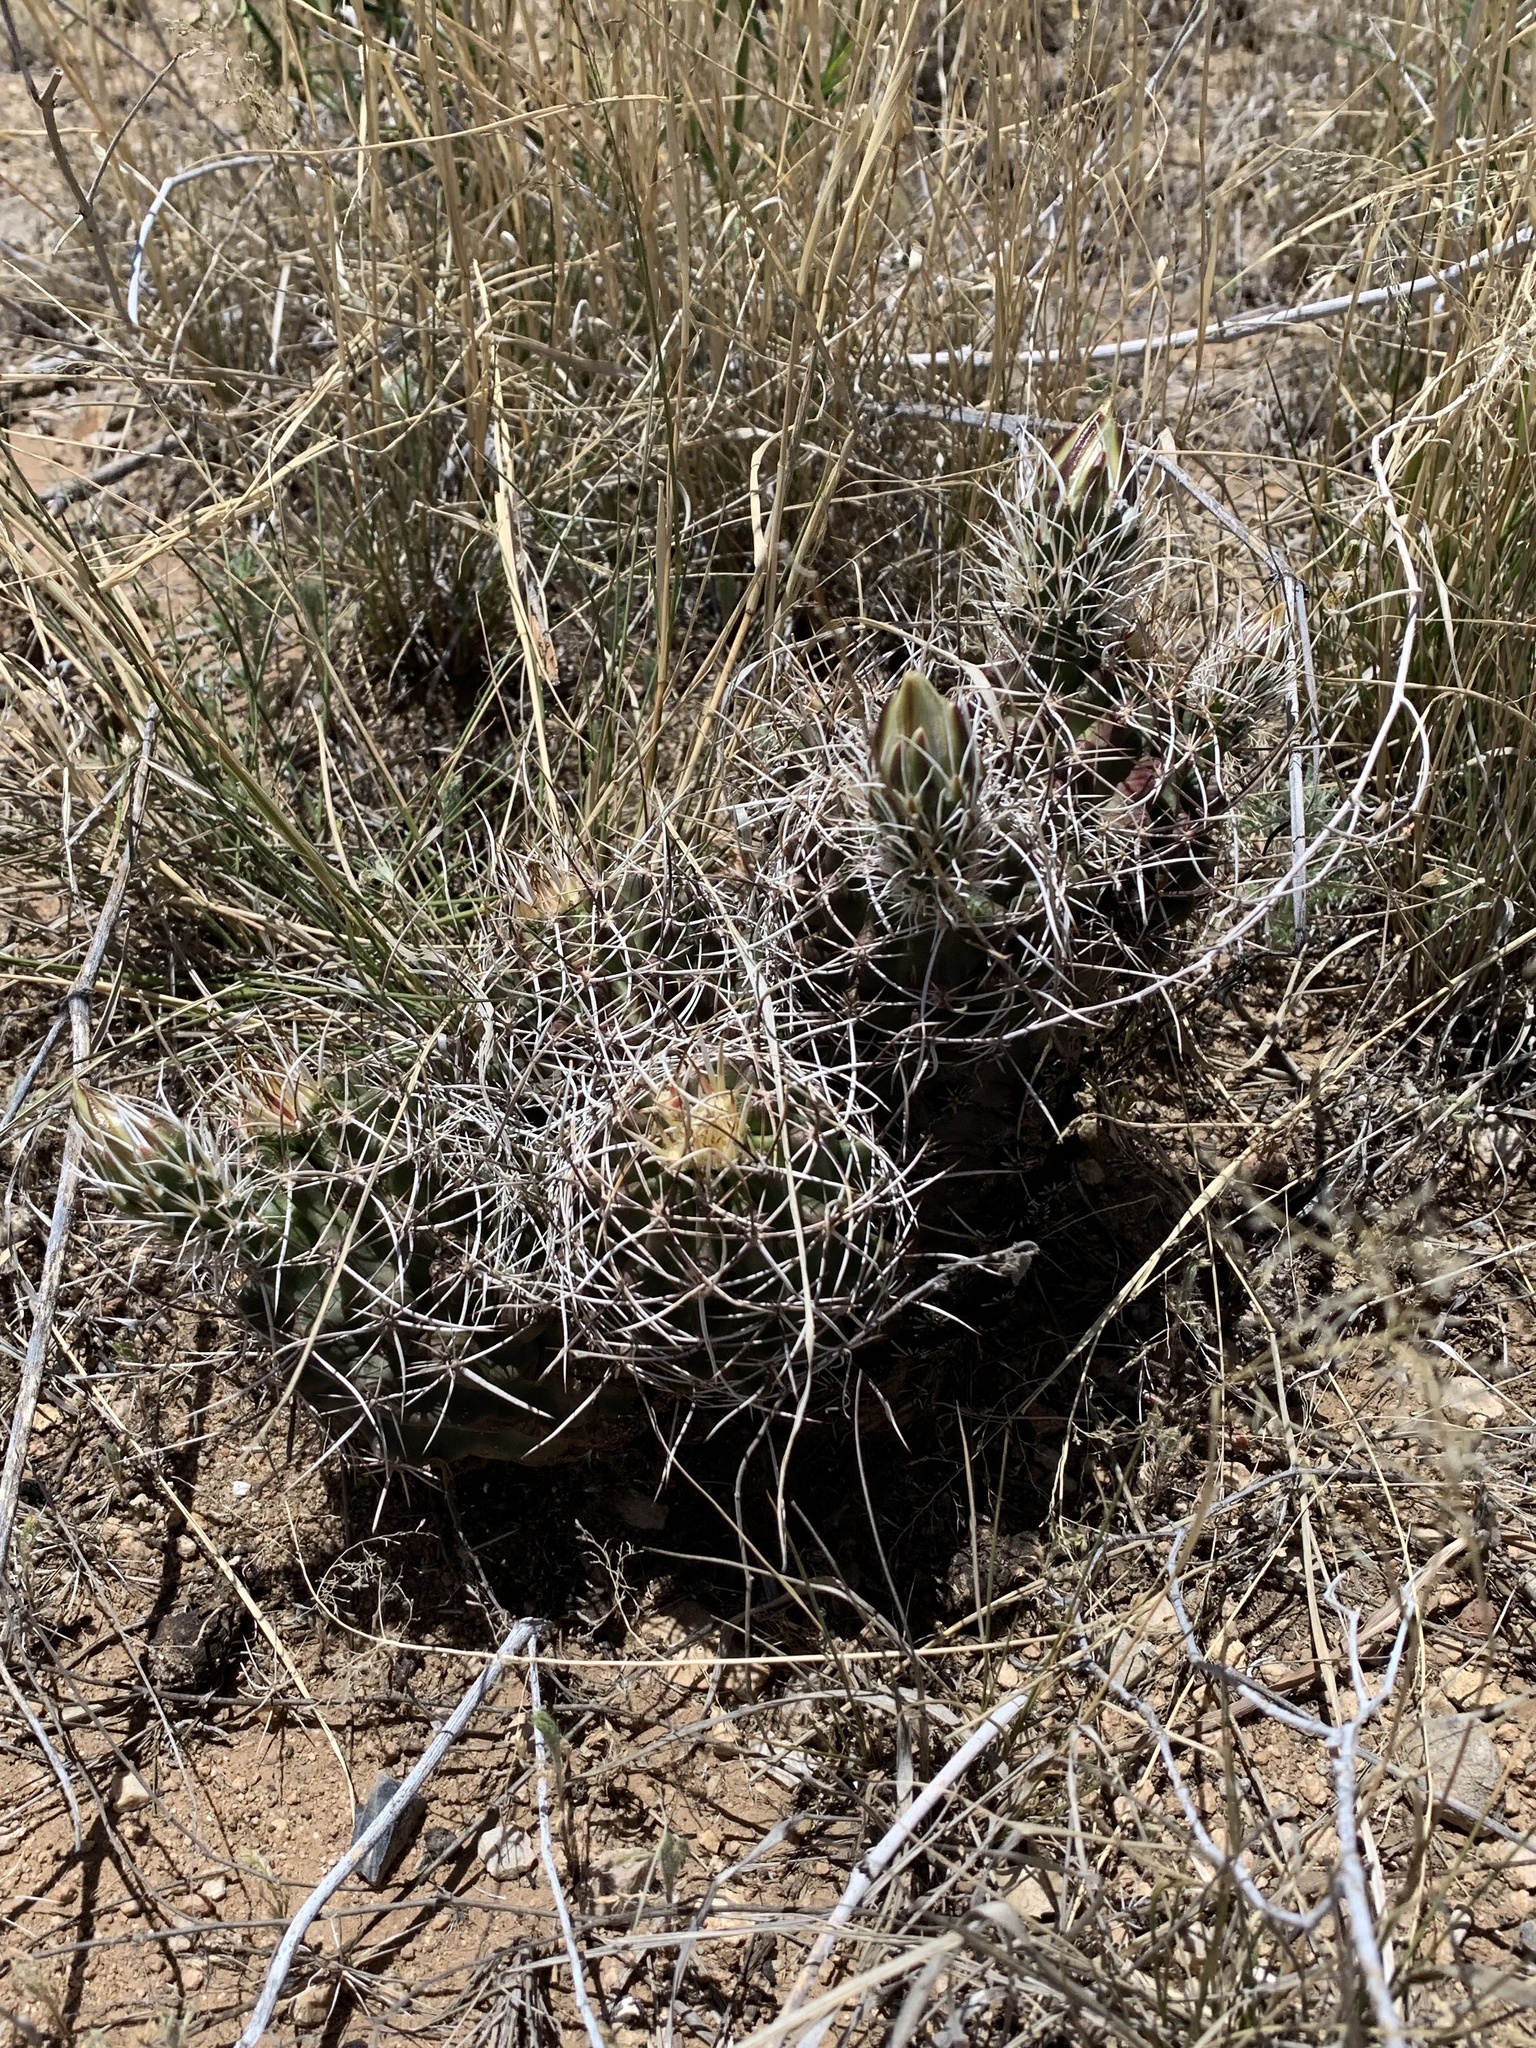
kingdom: Plantae
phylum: Tracheophyta
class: Magnoliopsida
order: Caryophyllales
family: Cactaceae
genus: Echinocereus
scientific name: Echinocereus fendleri
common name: Fendler's hedgehog cactus
